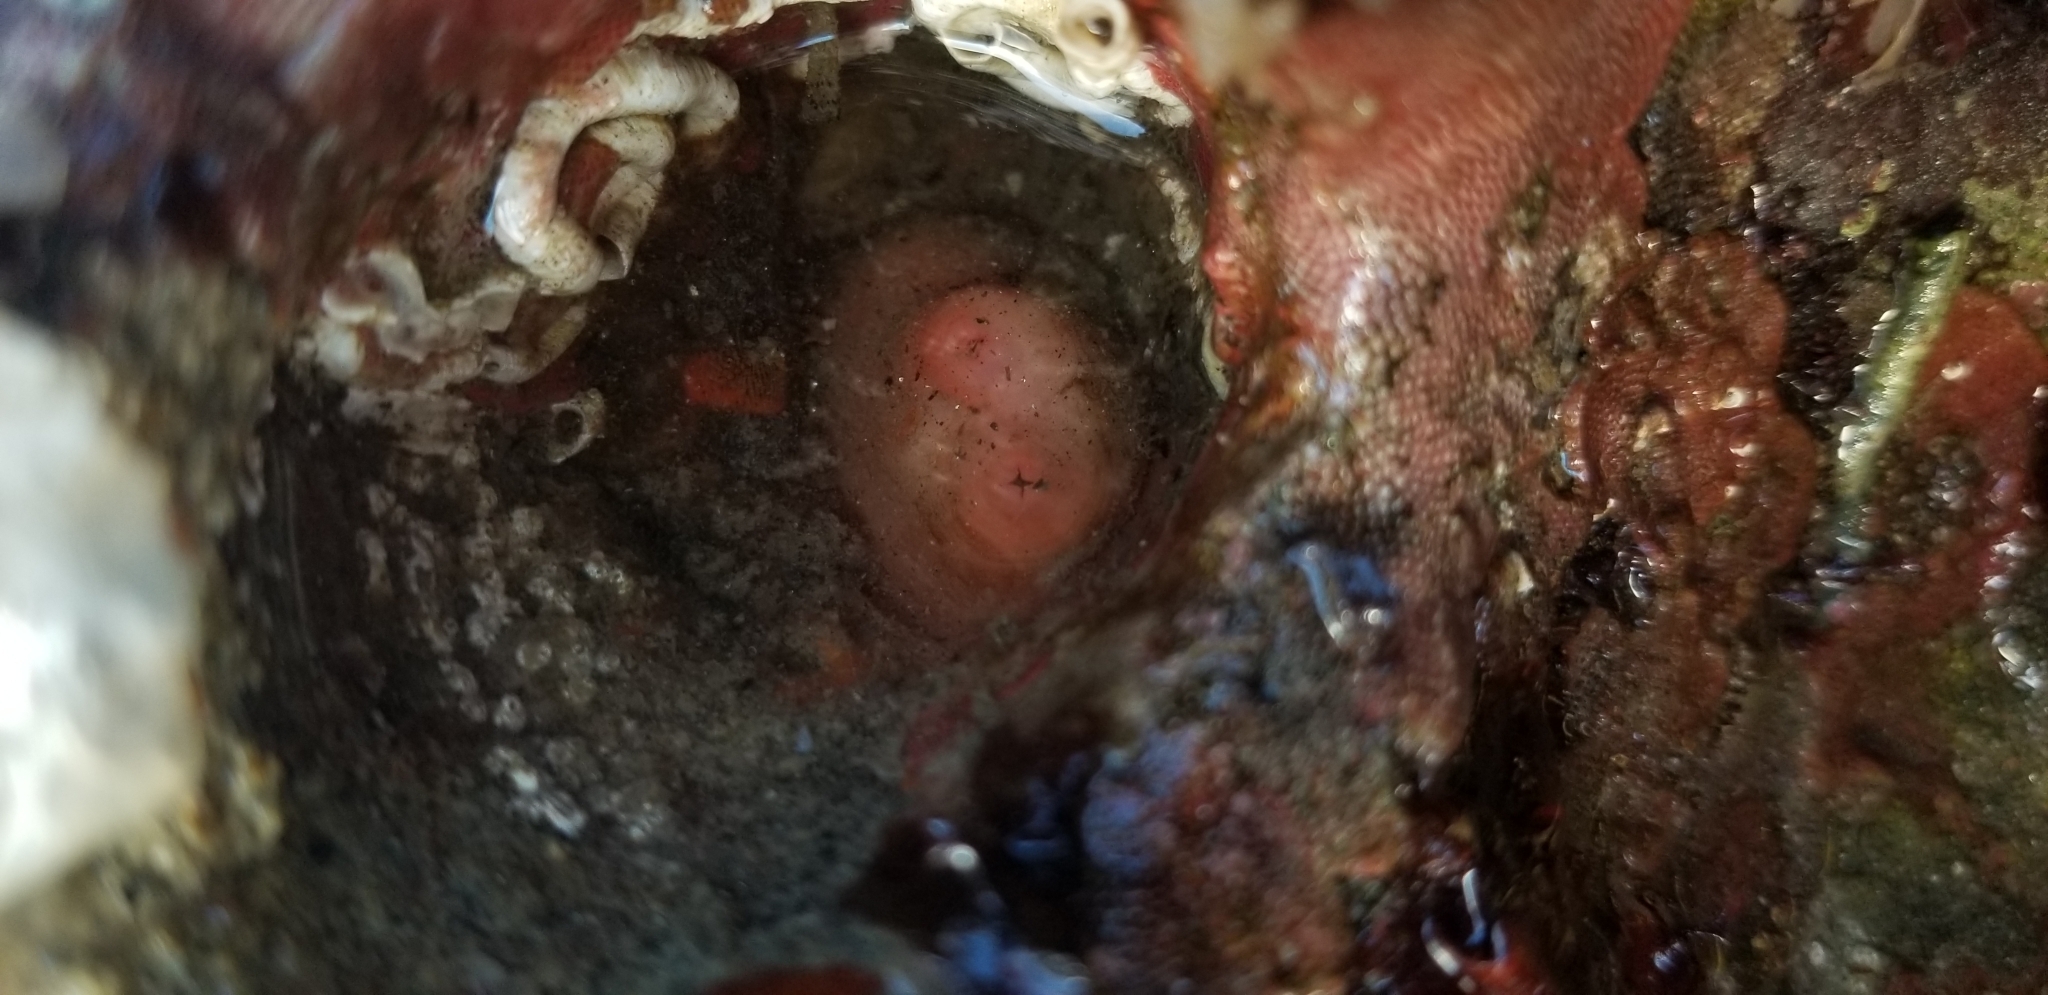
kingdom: Animalia
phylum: Mollusca
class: Bivalvia
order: Adapedonta
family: Hiatellidae
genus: Hiatella
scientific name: Hiatella arctica
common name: Arctic hiatella
